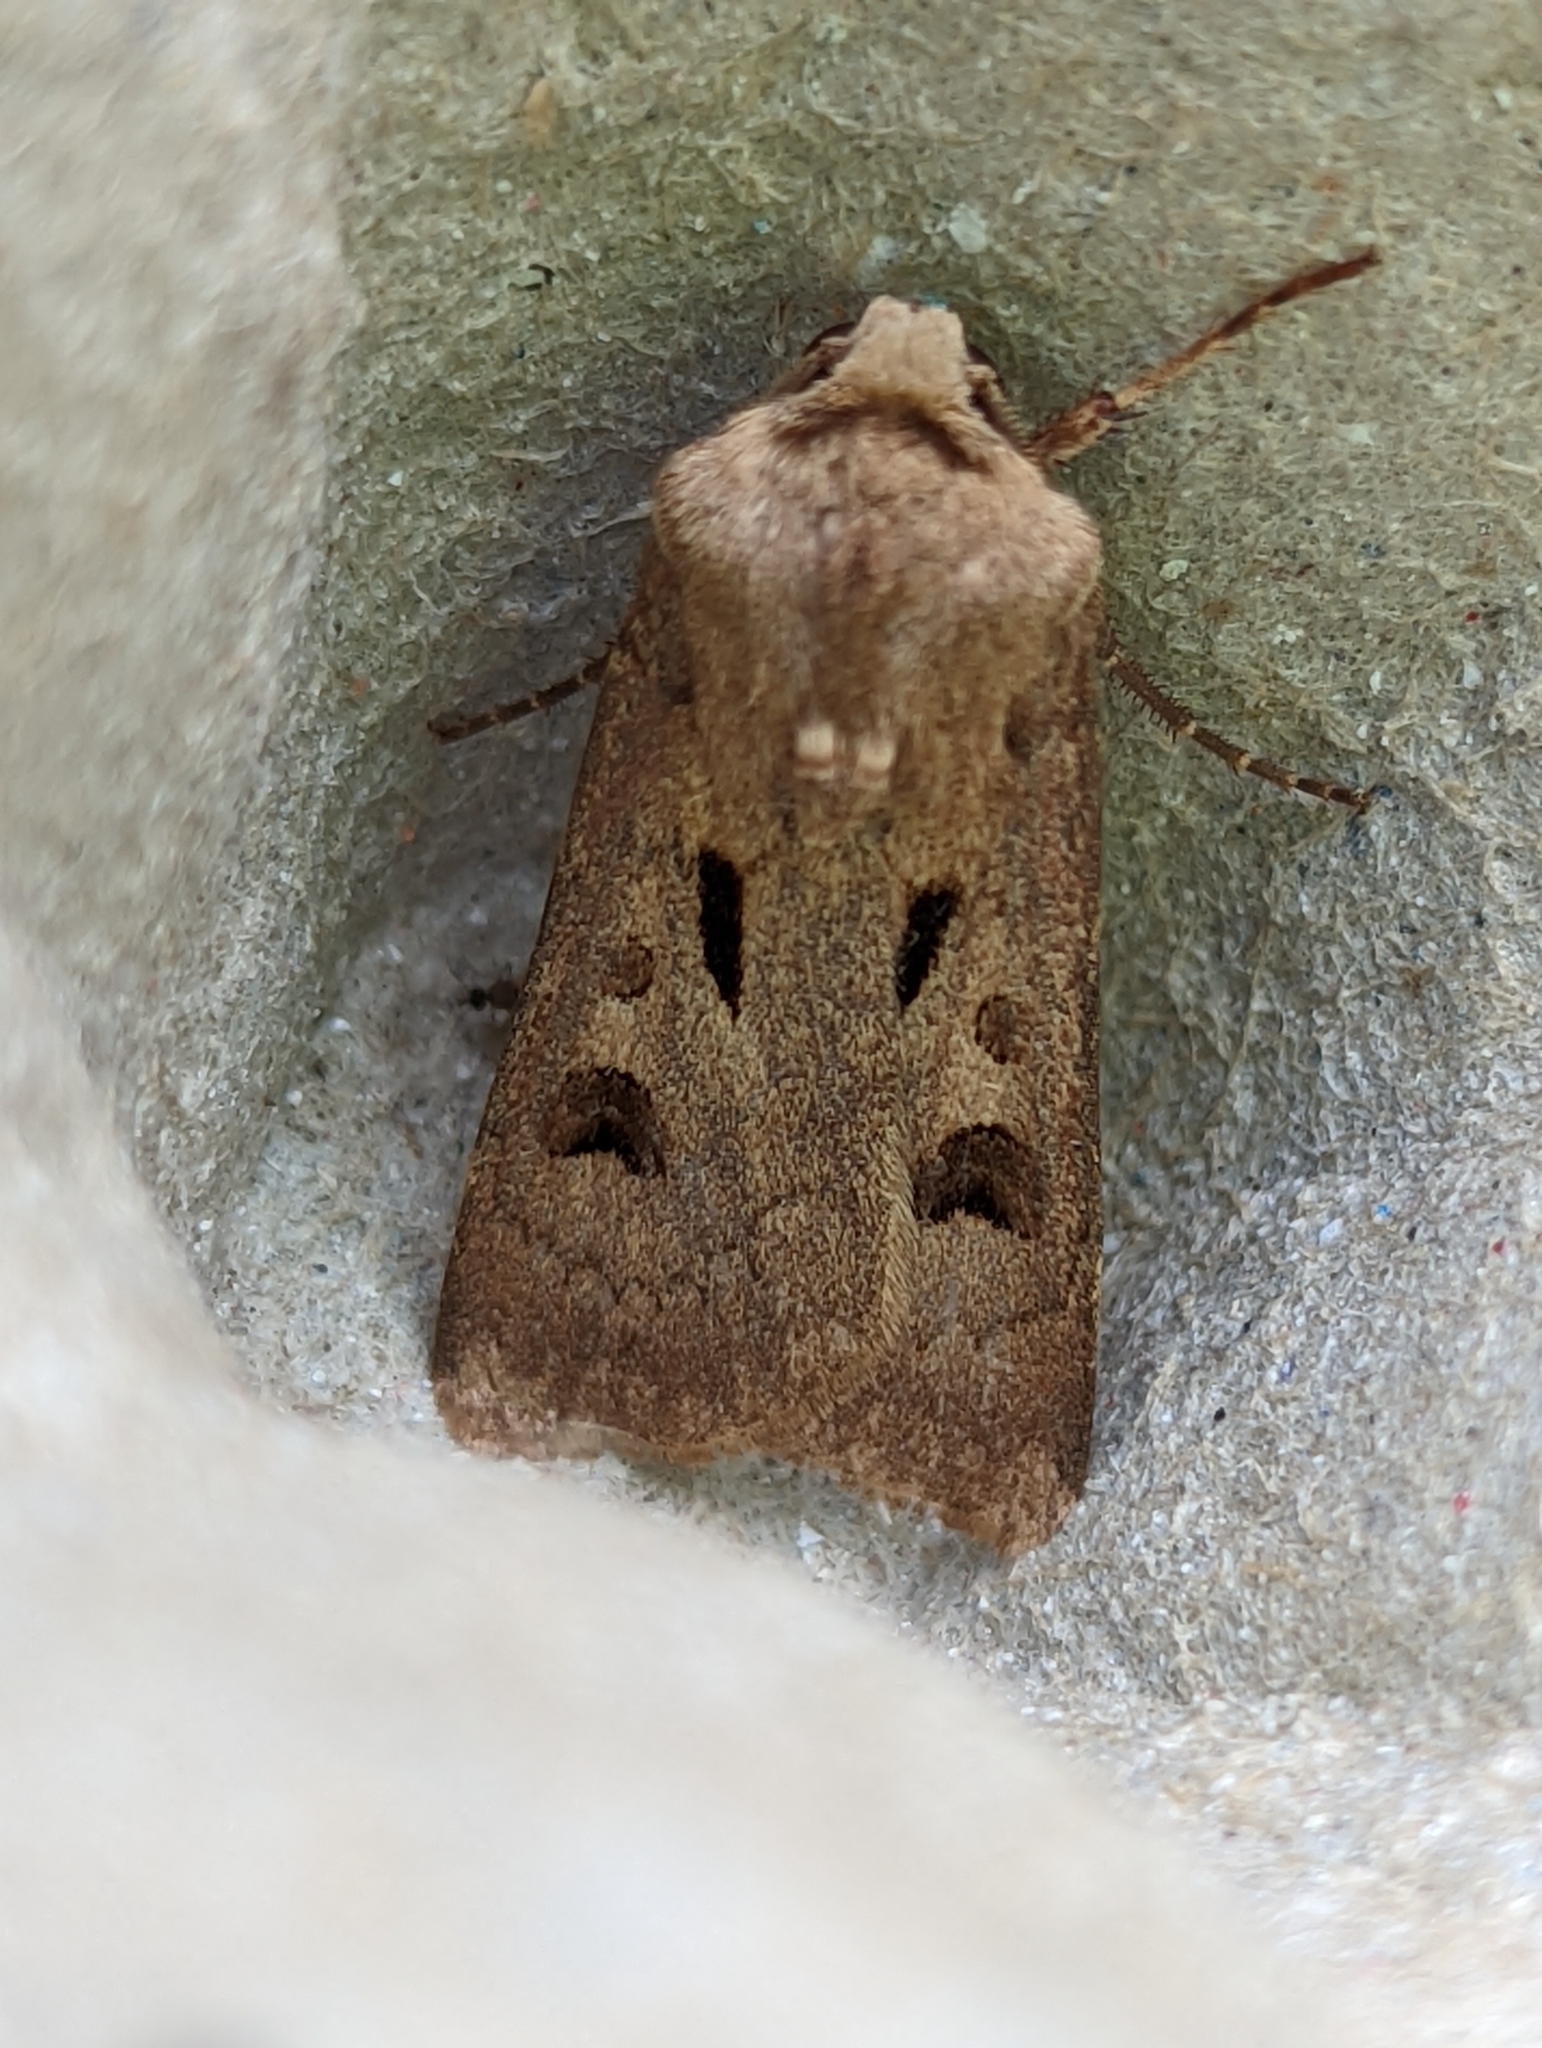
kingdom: Animalia
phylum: Arthropoda
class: Insecta
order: Lepidoptera
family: Noctuidae
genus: Agrotis
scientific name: Agrotis exclamationis
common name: Heart and dart
